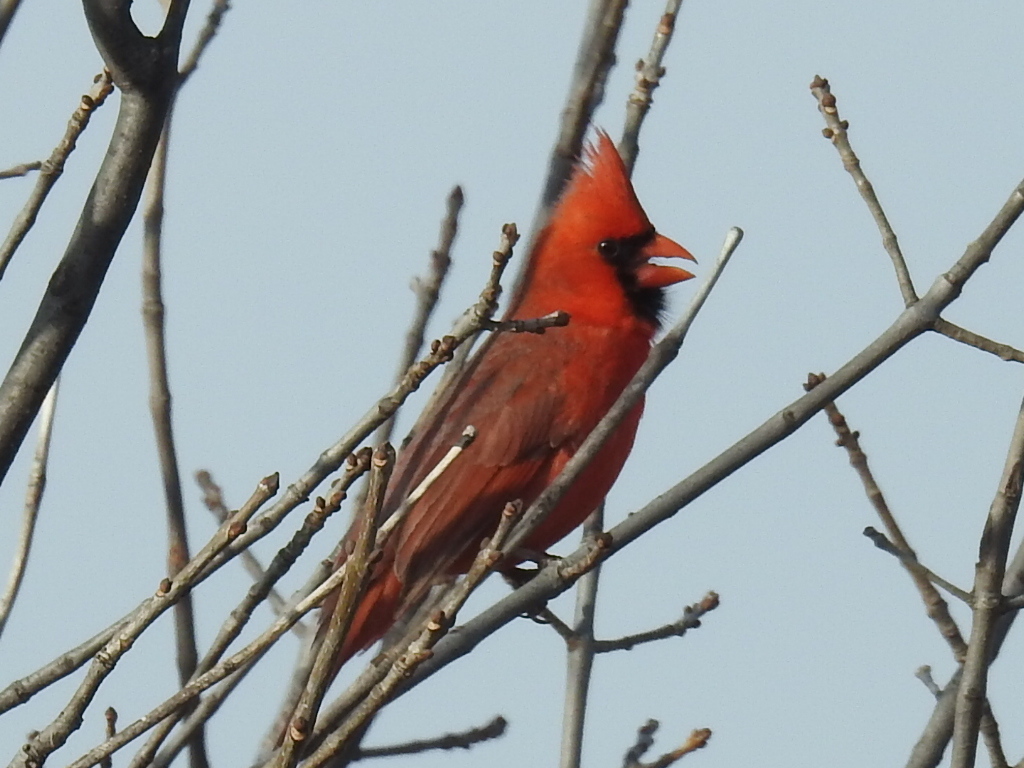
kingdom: Animalia
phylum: Chordata
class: Aves
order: Passeriformes
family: Cardinalidae
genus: Cardinalis
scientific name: Cardinalis cardinalis
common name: Northern cardinal
